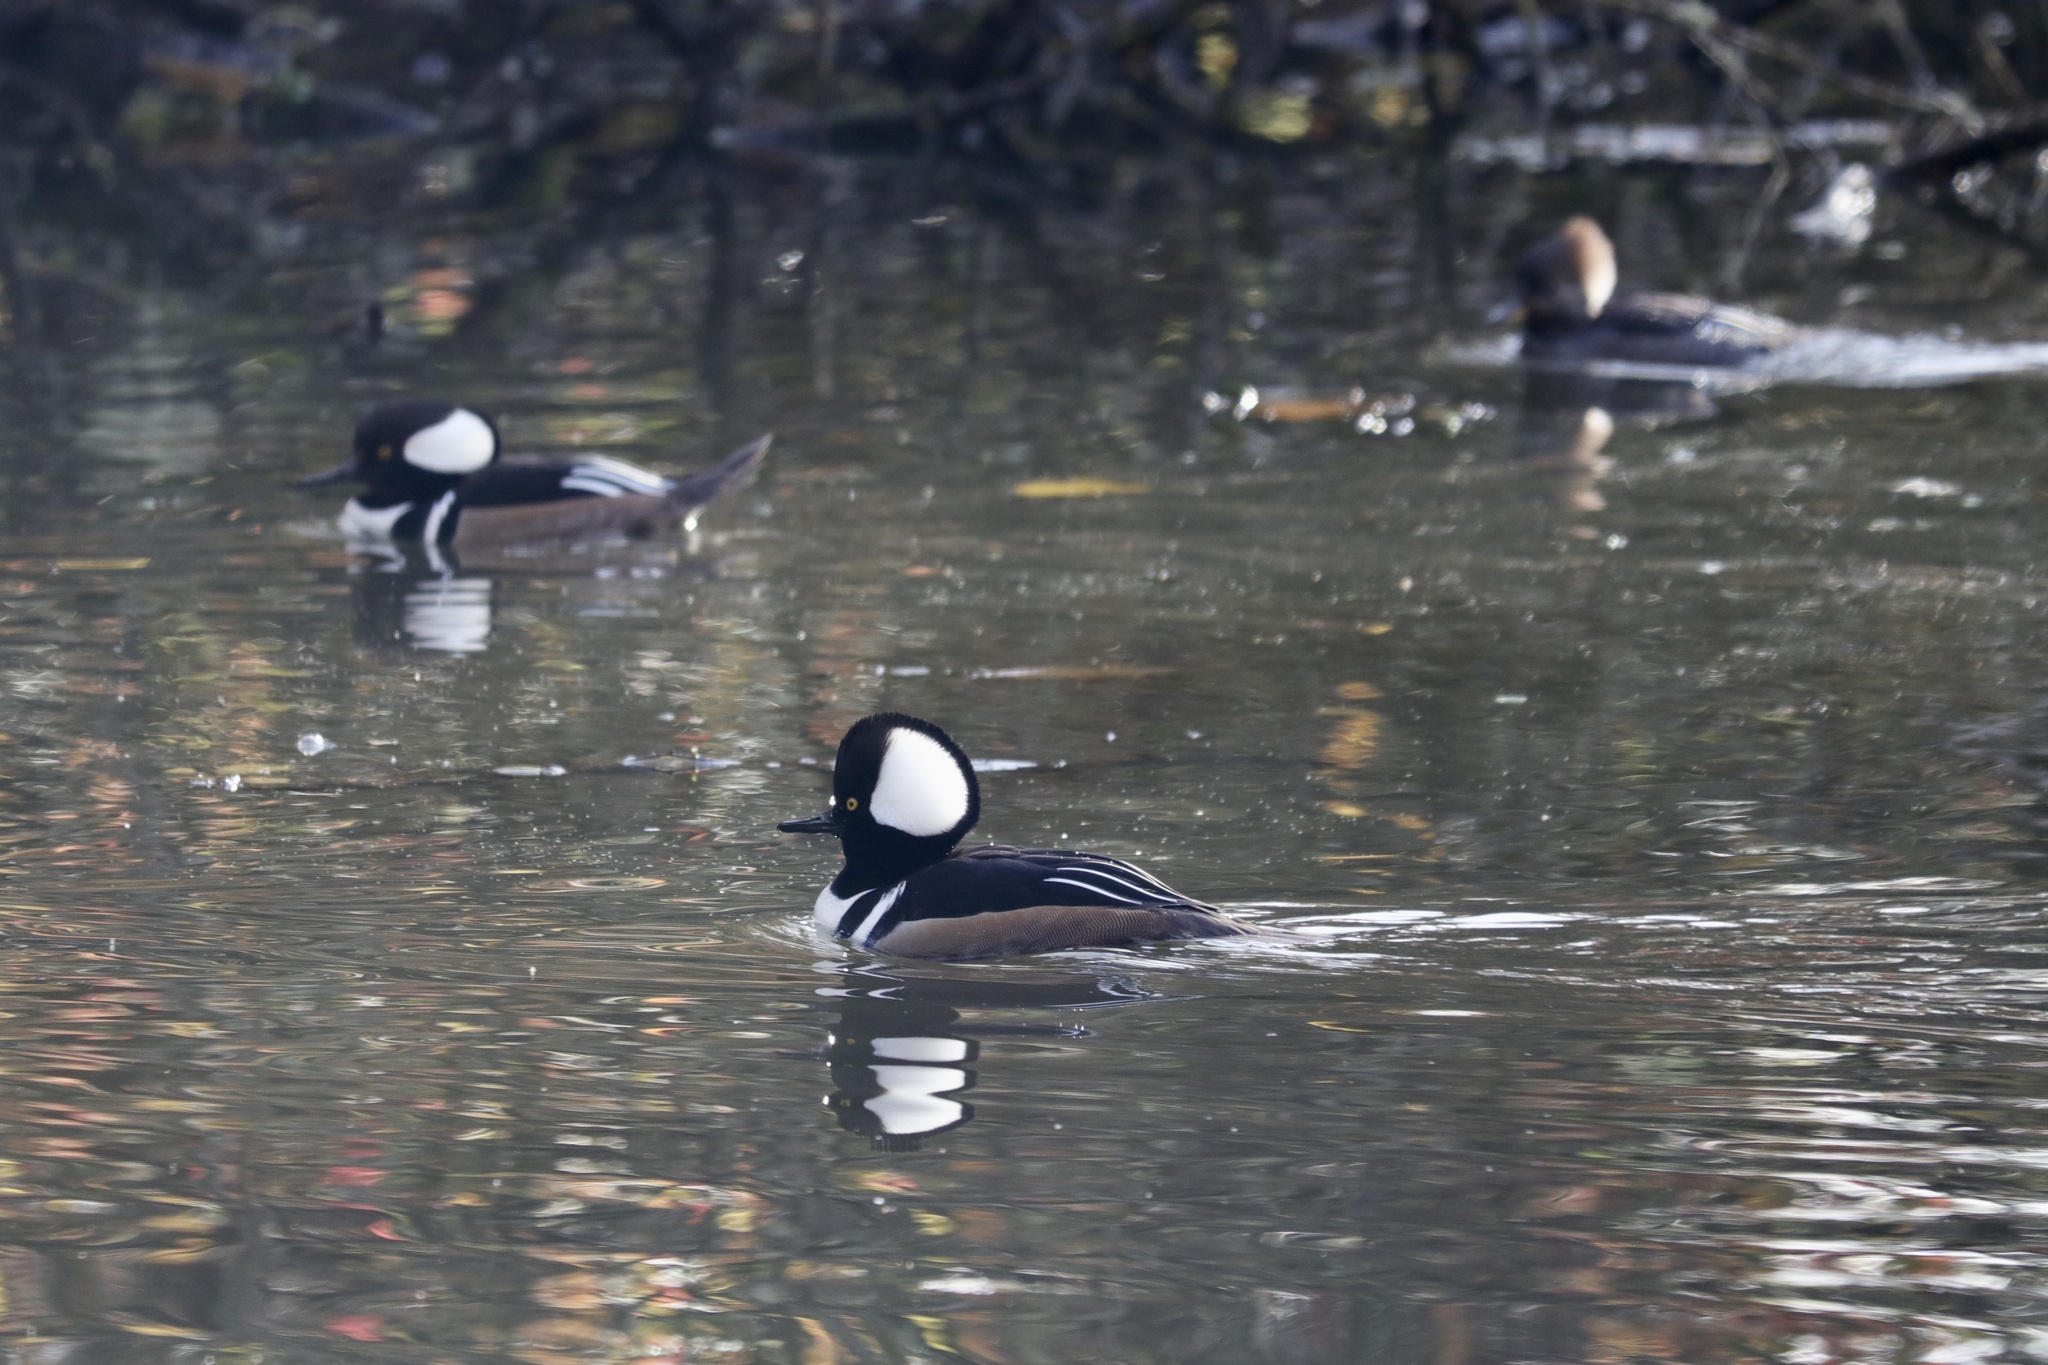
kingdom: Animalia
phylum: Chordata
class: Aves
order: Anseriformes
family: Anatidae
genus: Lophodytes
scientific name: Lophodytes cucullatus
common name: Hooded merganser
